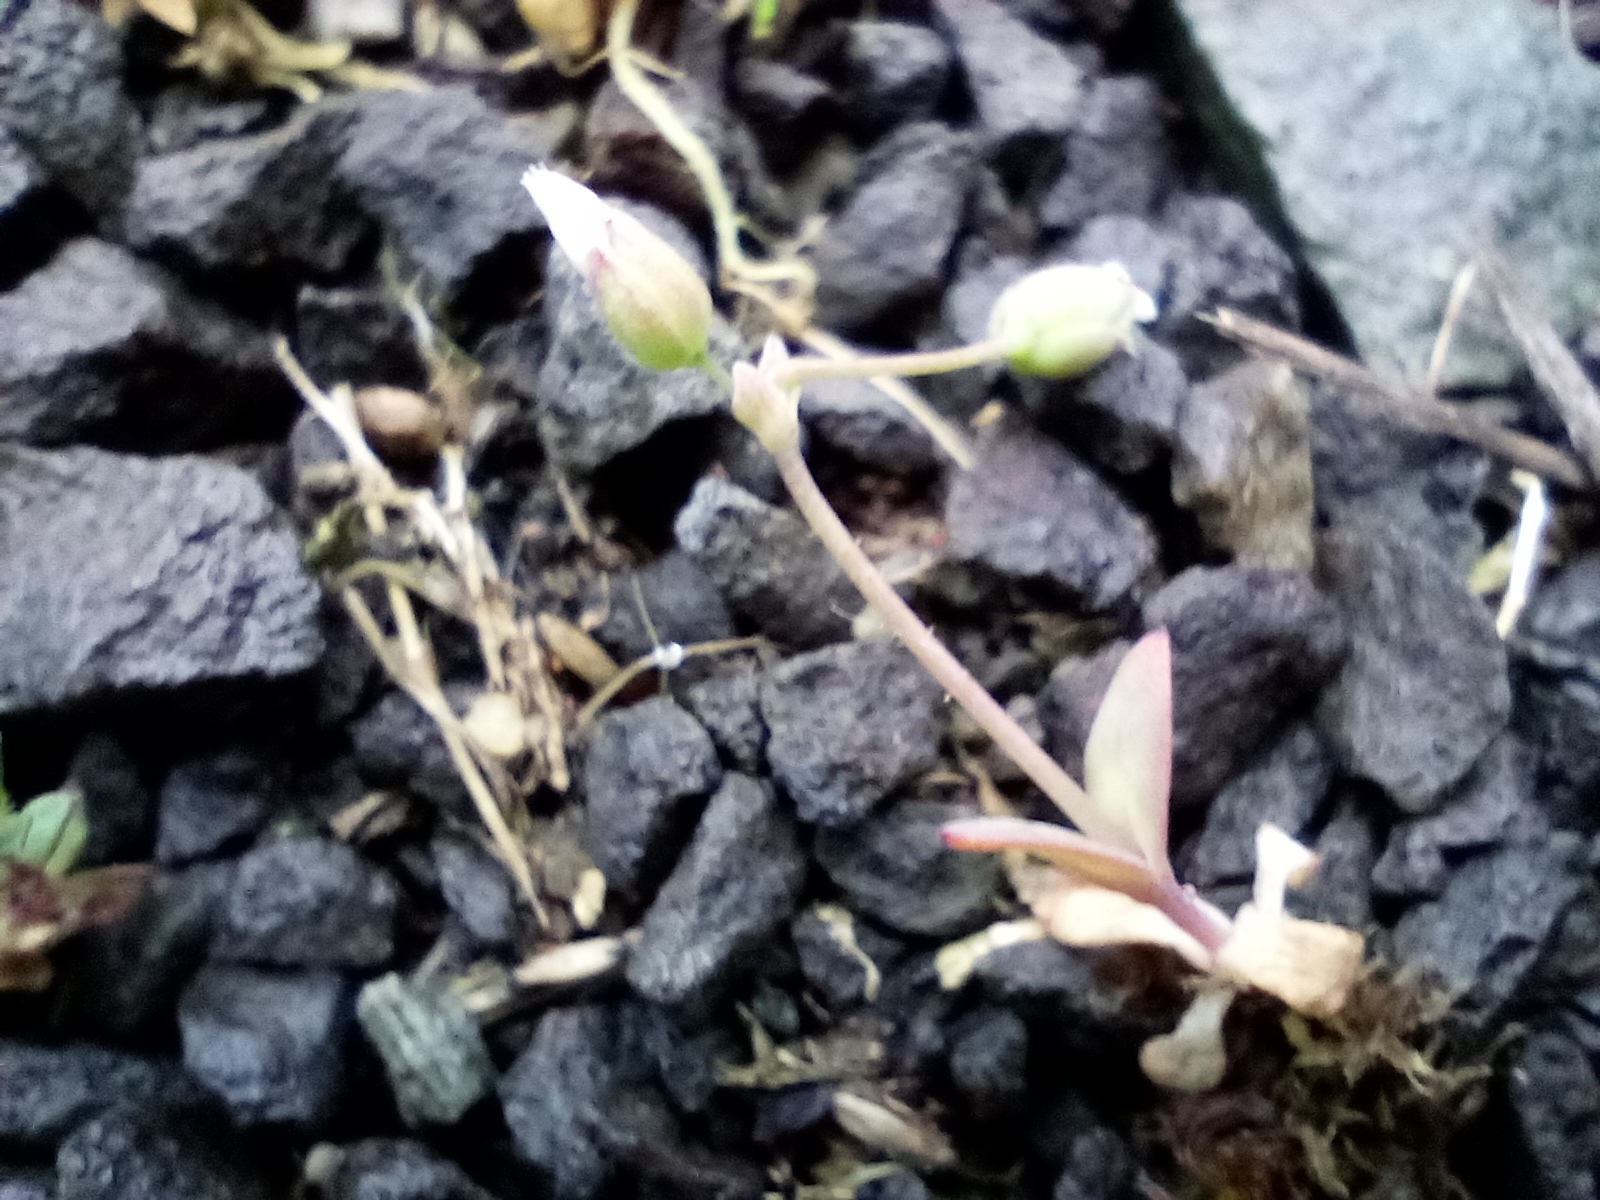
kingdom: Plantae
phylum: Tracheophyta
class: Magnoliopsida
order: Caryophyllales
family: Caryophyllaceae
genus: Holosteum
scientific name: Holosteum umbellatum
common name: Jagged chickweed
